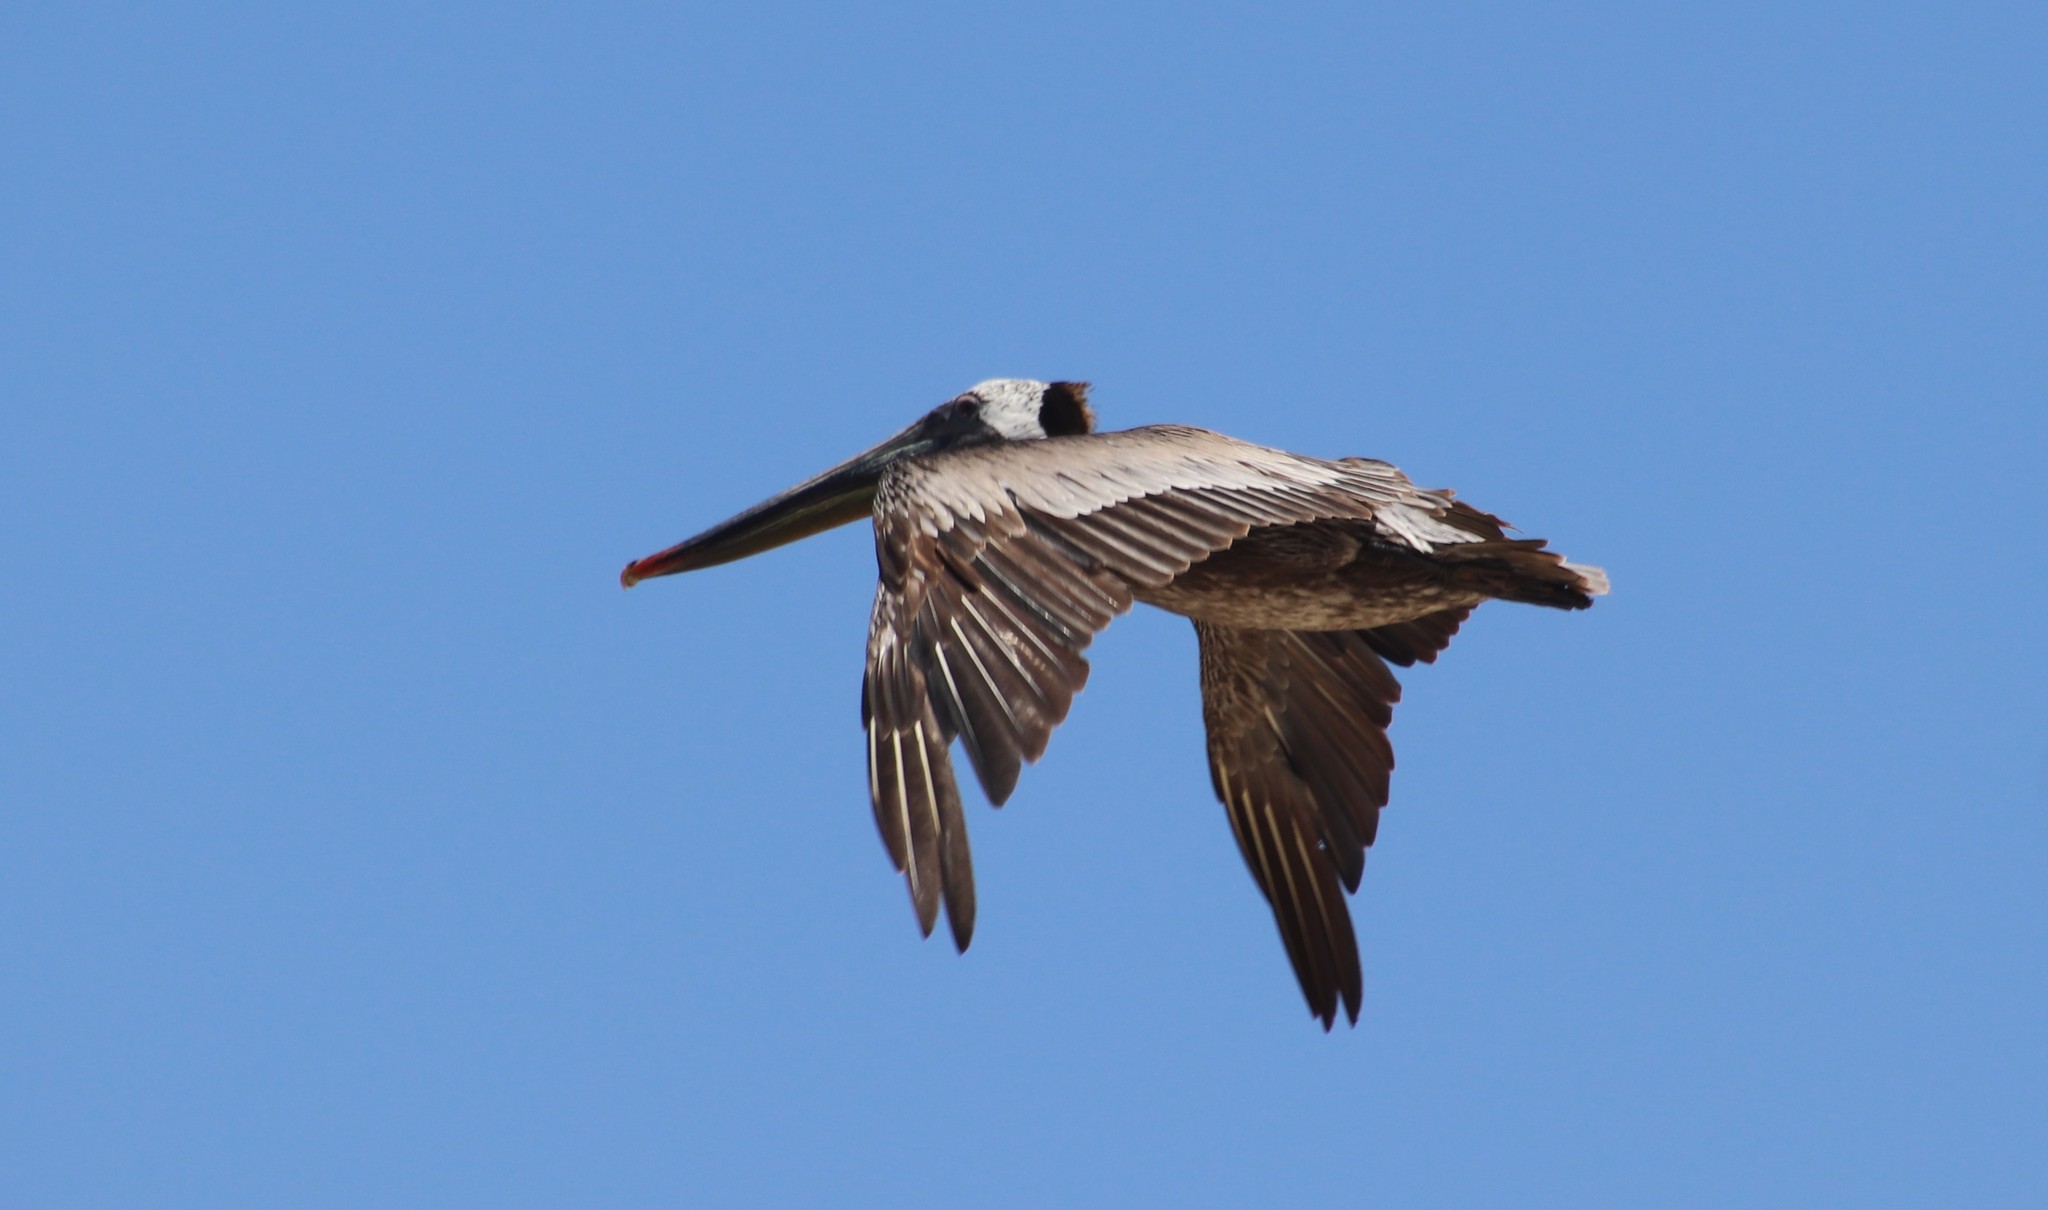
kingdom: Animalia
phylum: Chordata
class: Aves
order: Pelecaniformes
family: Pelecanidae
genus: Pelecanus
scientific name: Pelecanus occidentalis
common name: Brown pelican
